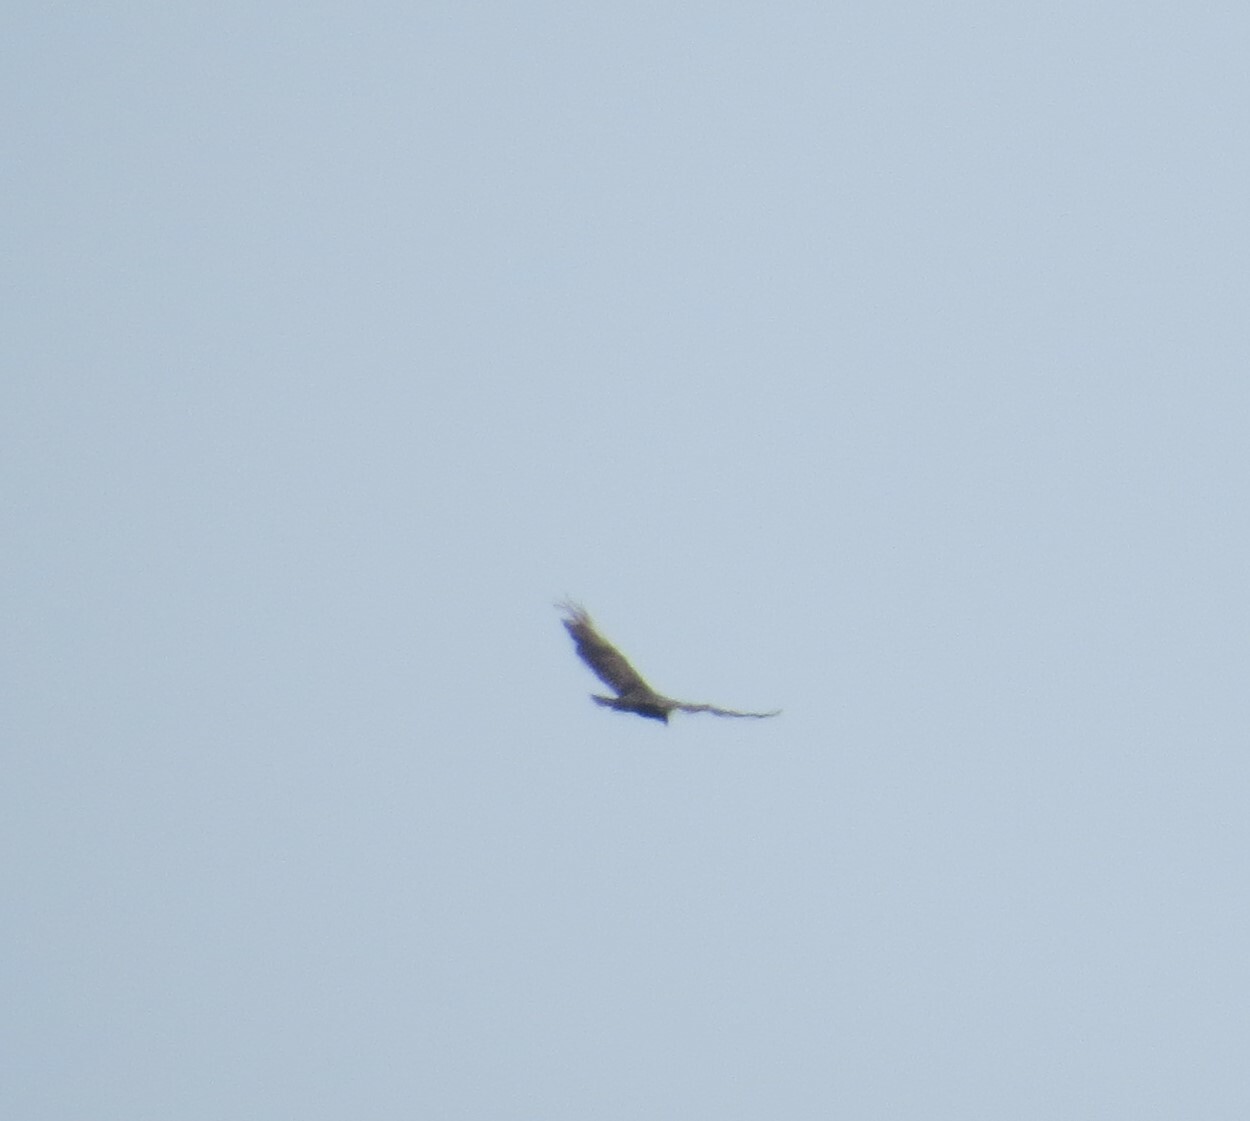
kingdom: Animalia
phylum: Chordata
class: Aves
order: Accipitriformes
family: Cathartidae
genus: Cathartes
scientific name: Cathartes aura
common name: Turkey vulture
